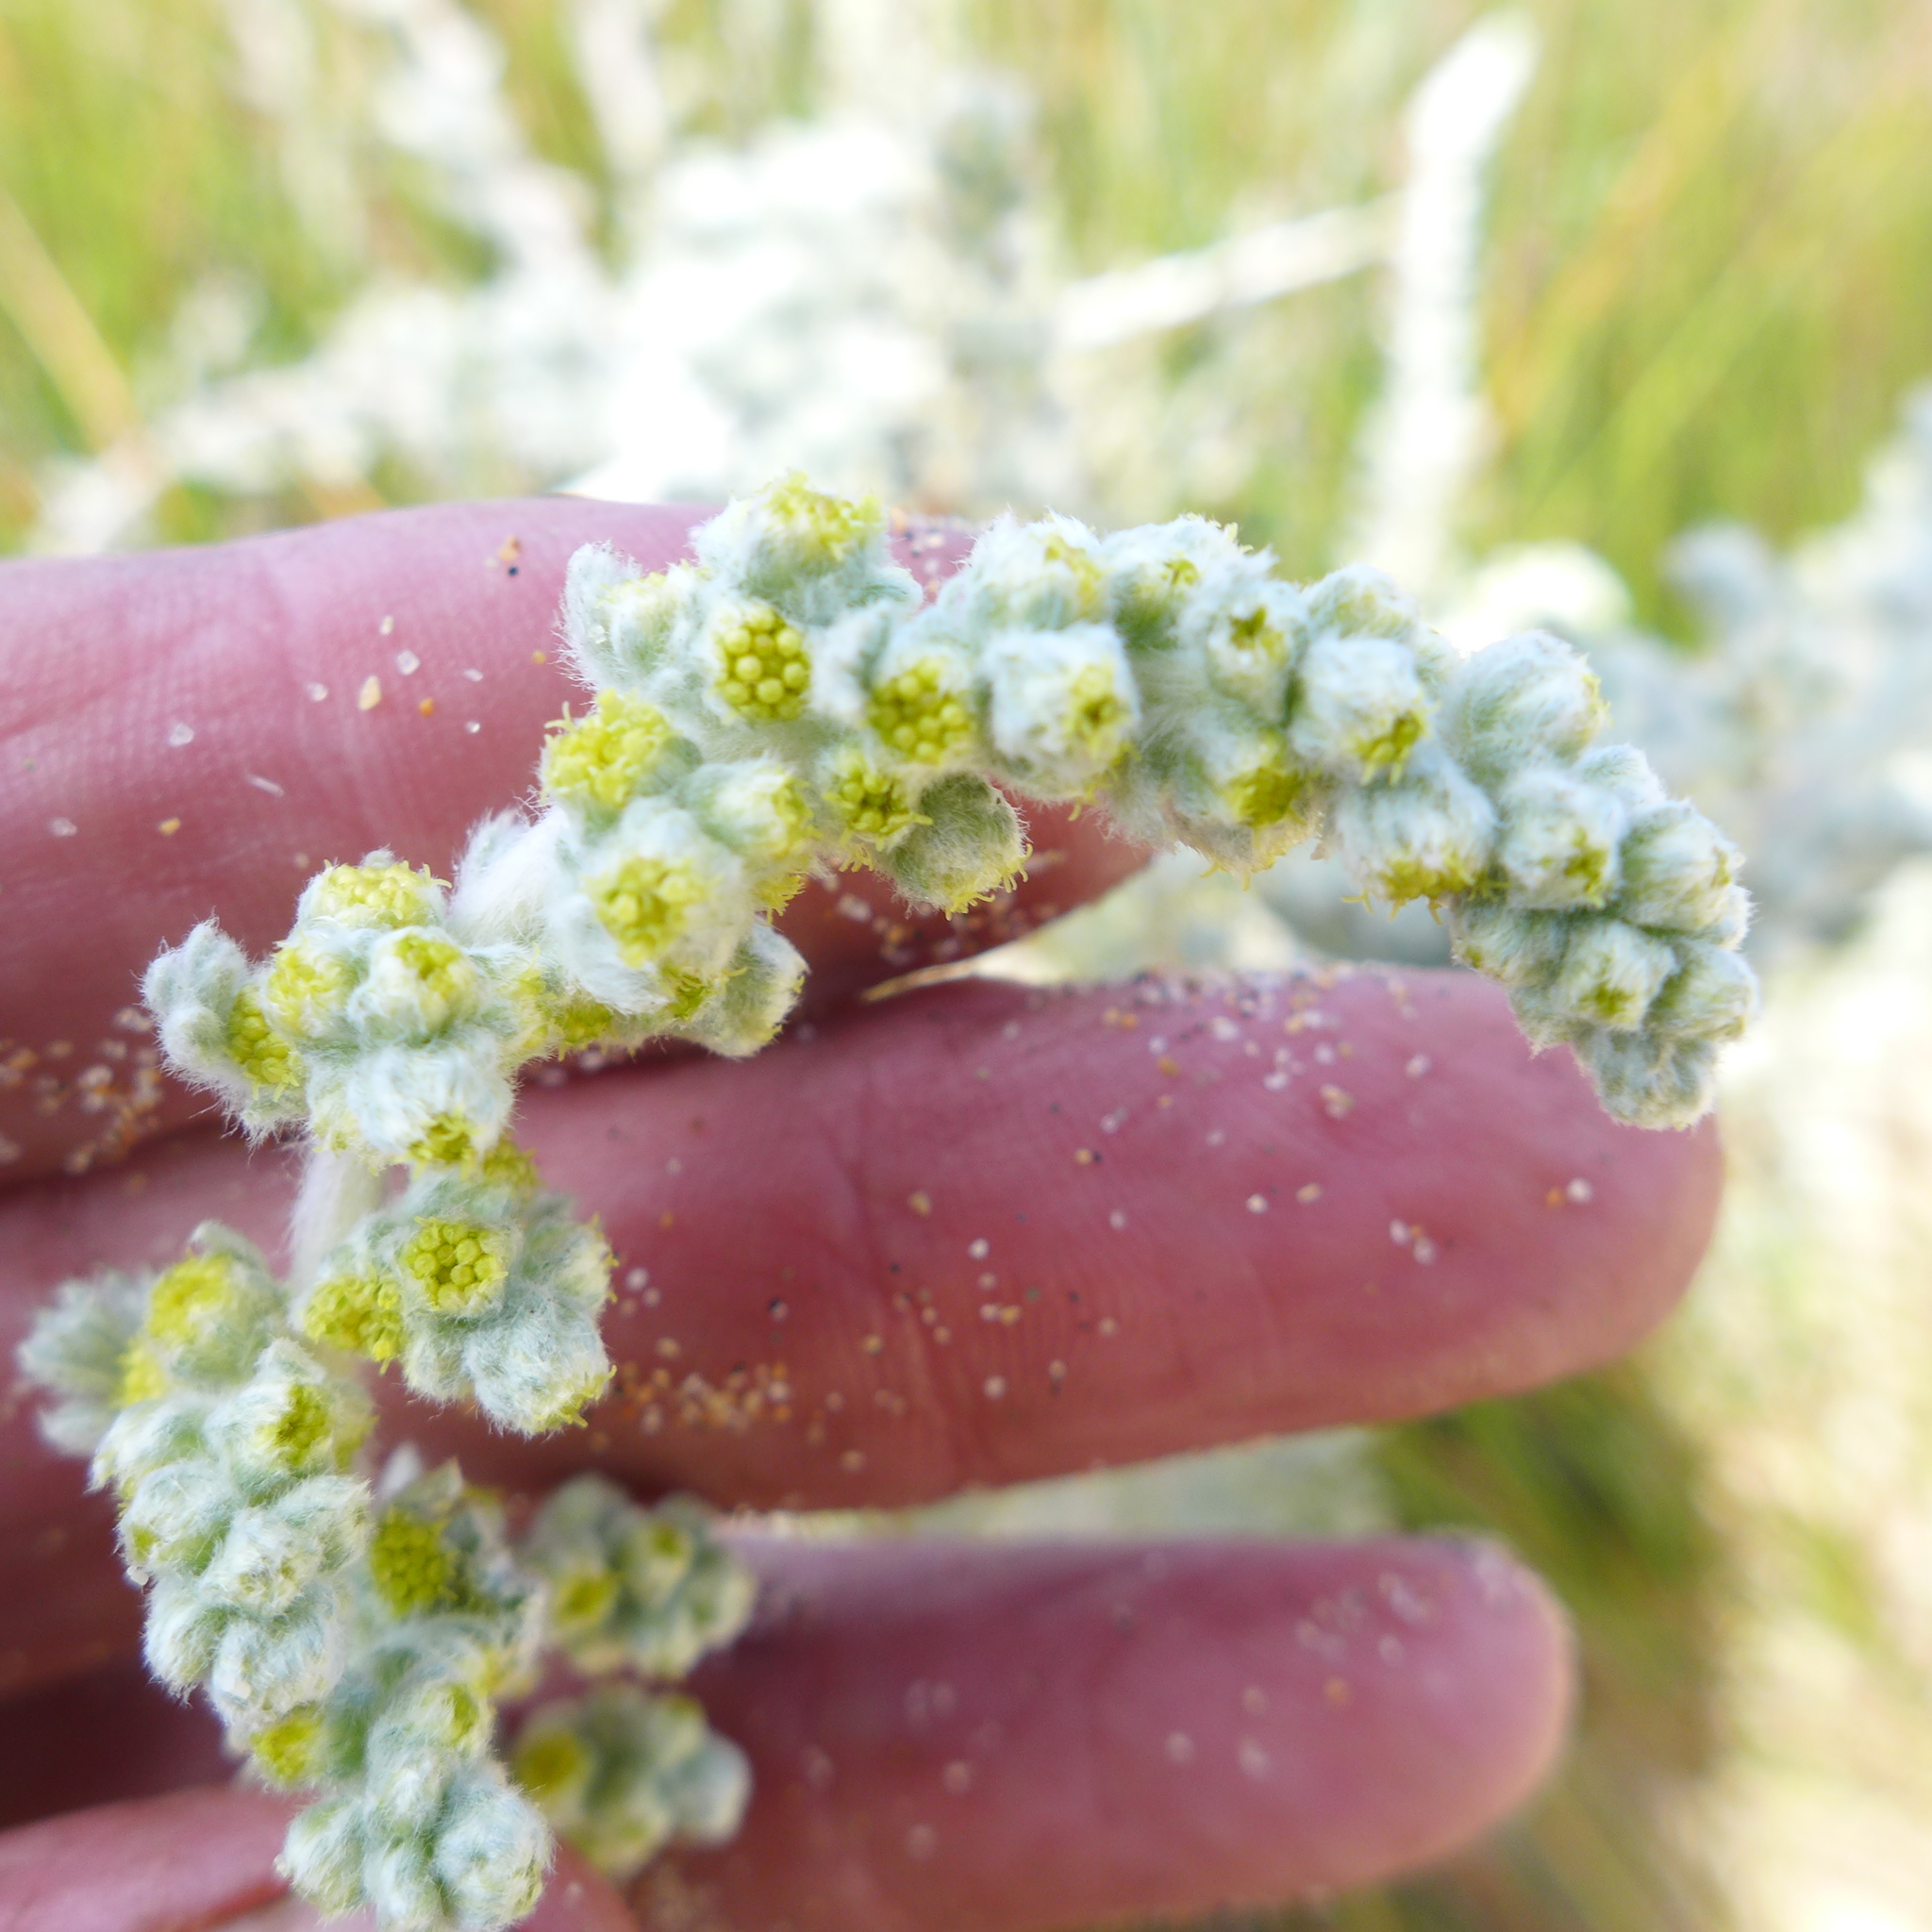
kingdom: Plantae
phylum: Tracheophyta
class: Magnoliopsida
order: Asterales
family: Asteraceae
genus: Artemisia
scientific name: Artemisia pycnocephala
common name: Coastal sagewort
